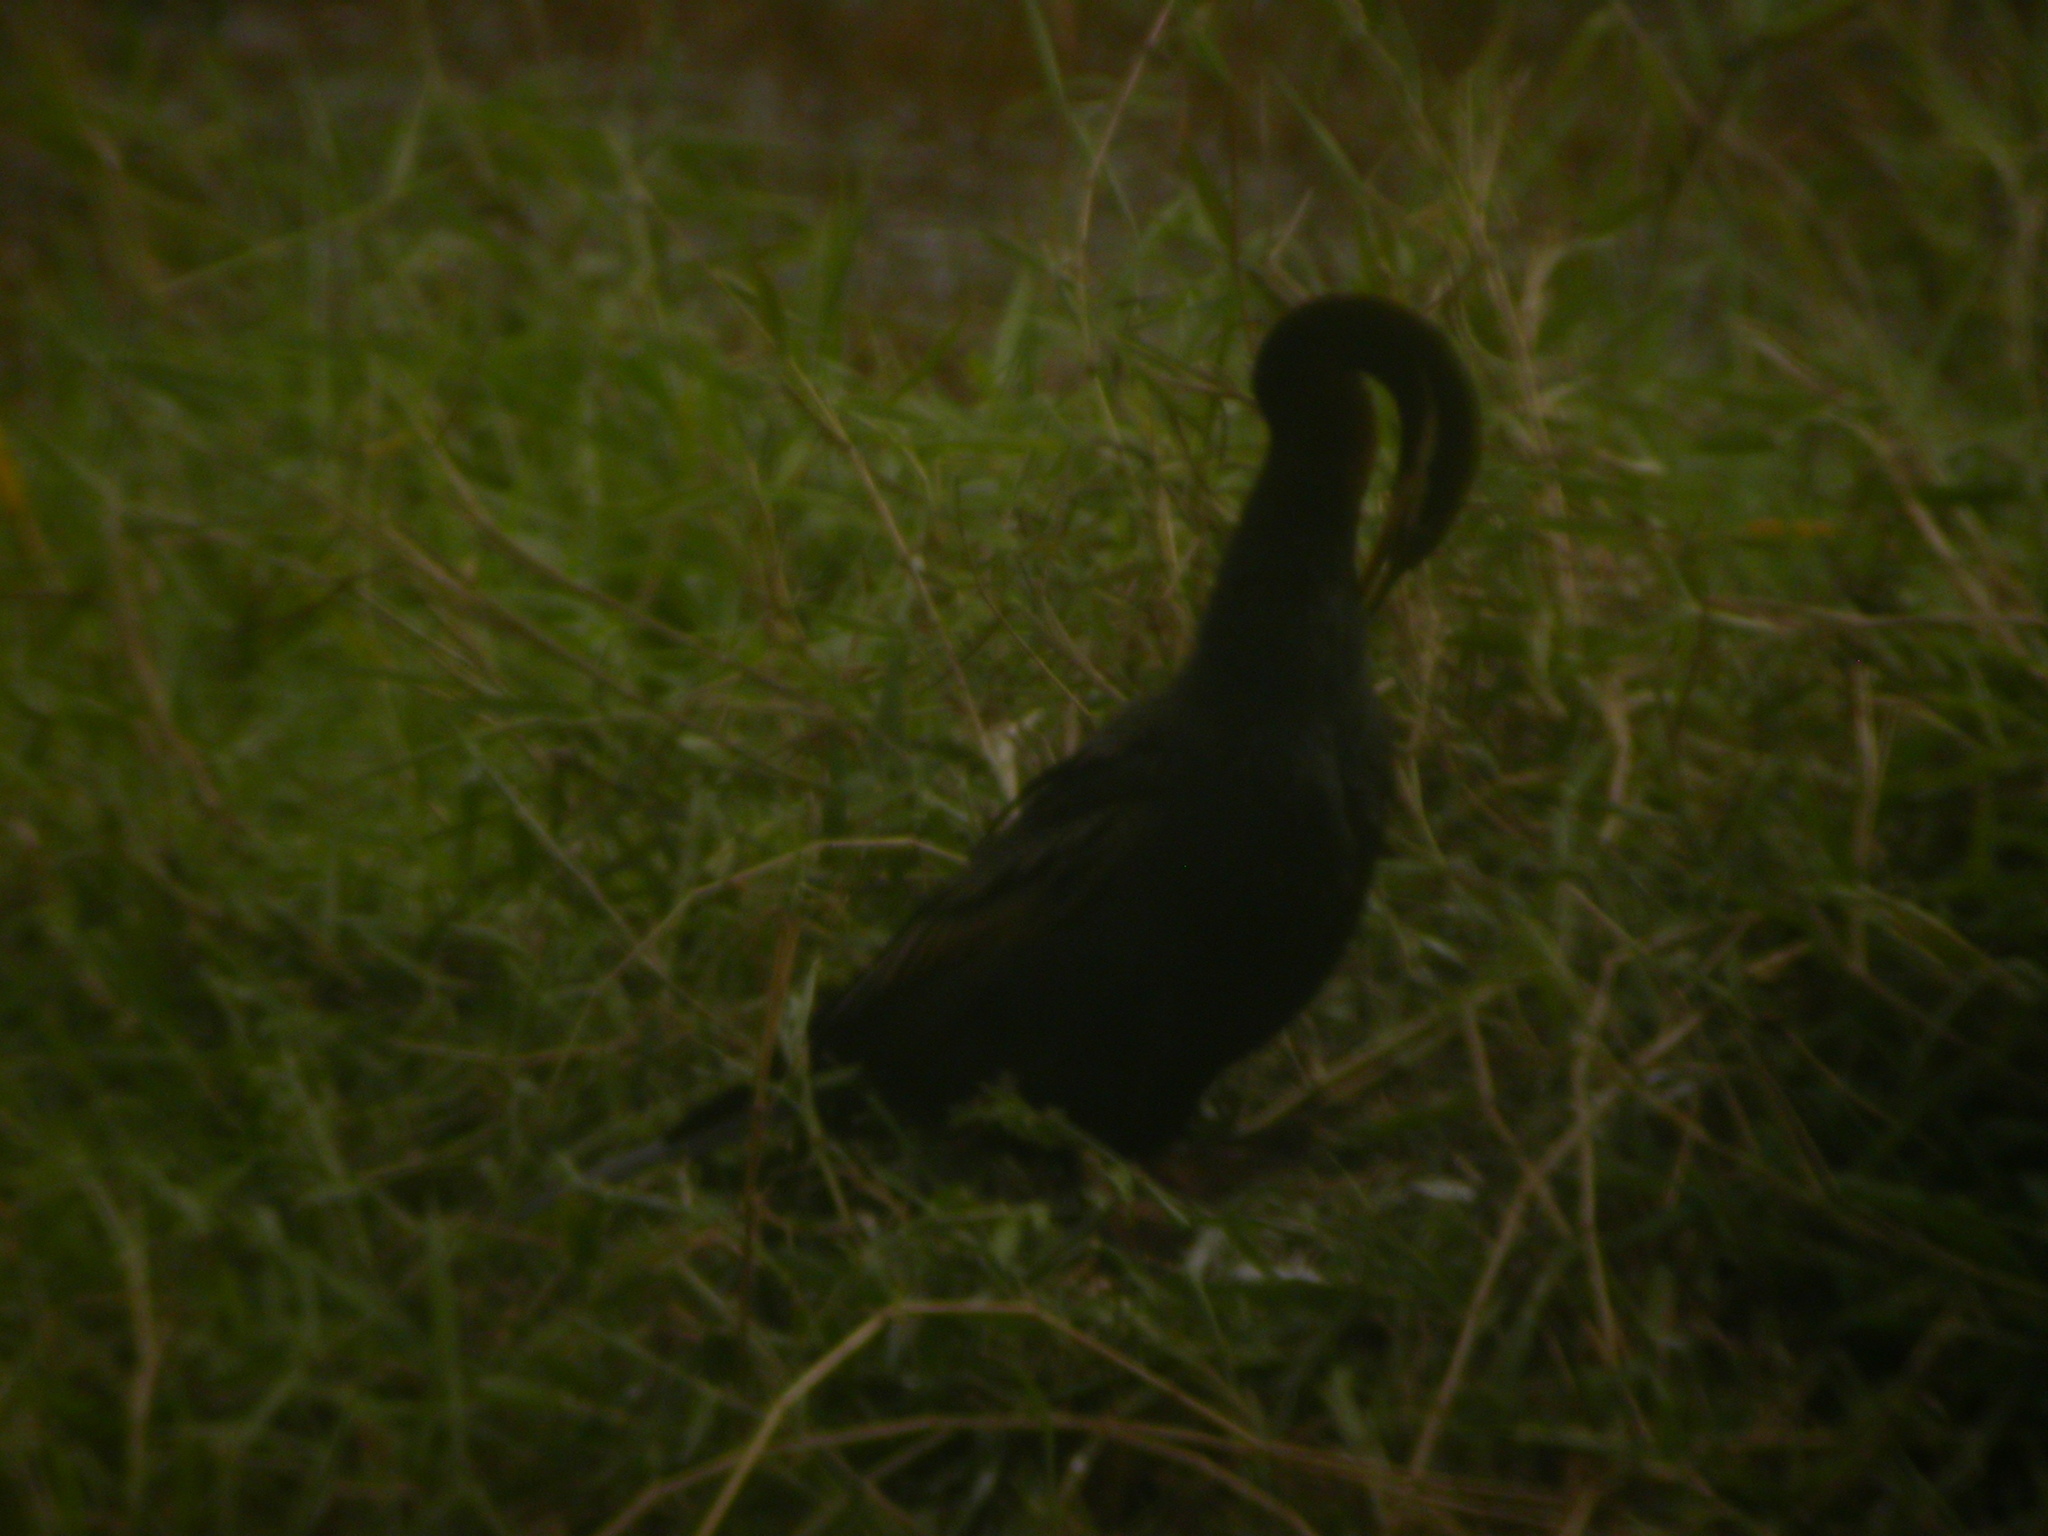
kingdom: Animalia
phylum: Chordata
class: Aves
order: Suliformes
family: Anhingidae
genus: Anhinga
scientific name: Anhinga novaehollandiae
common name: Australasian darter
